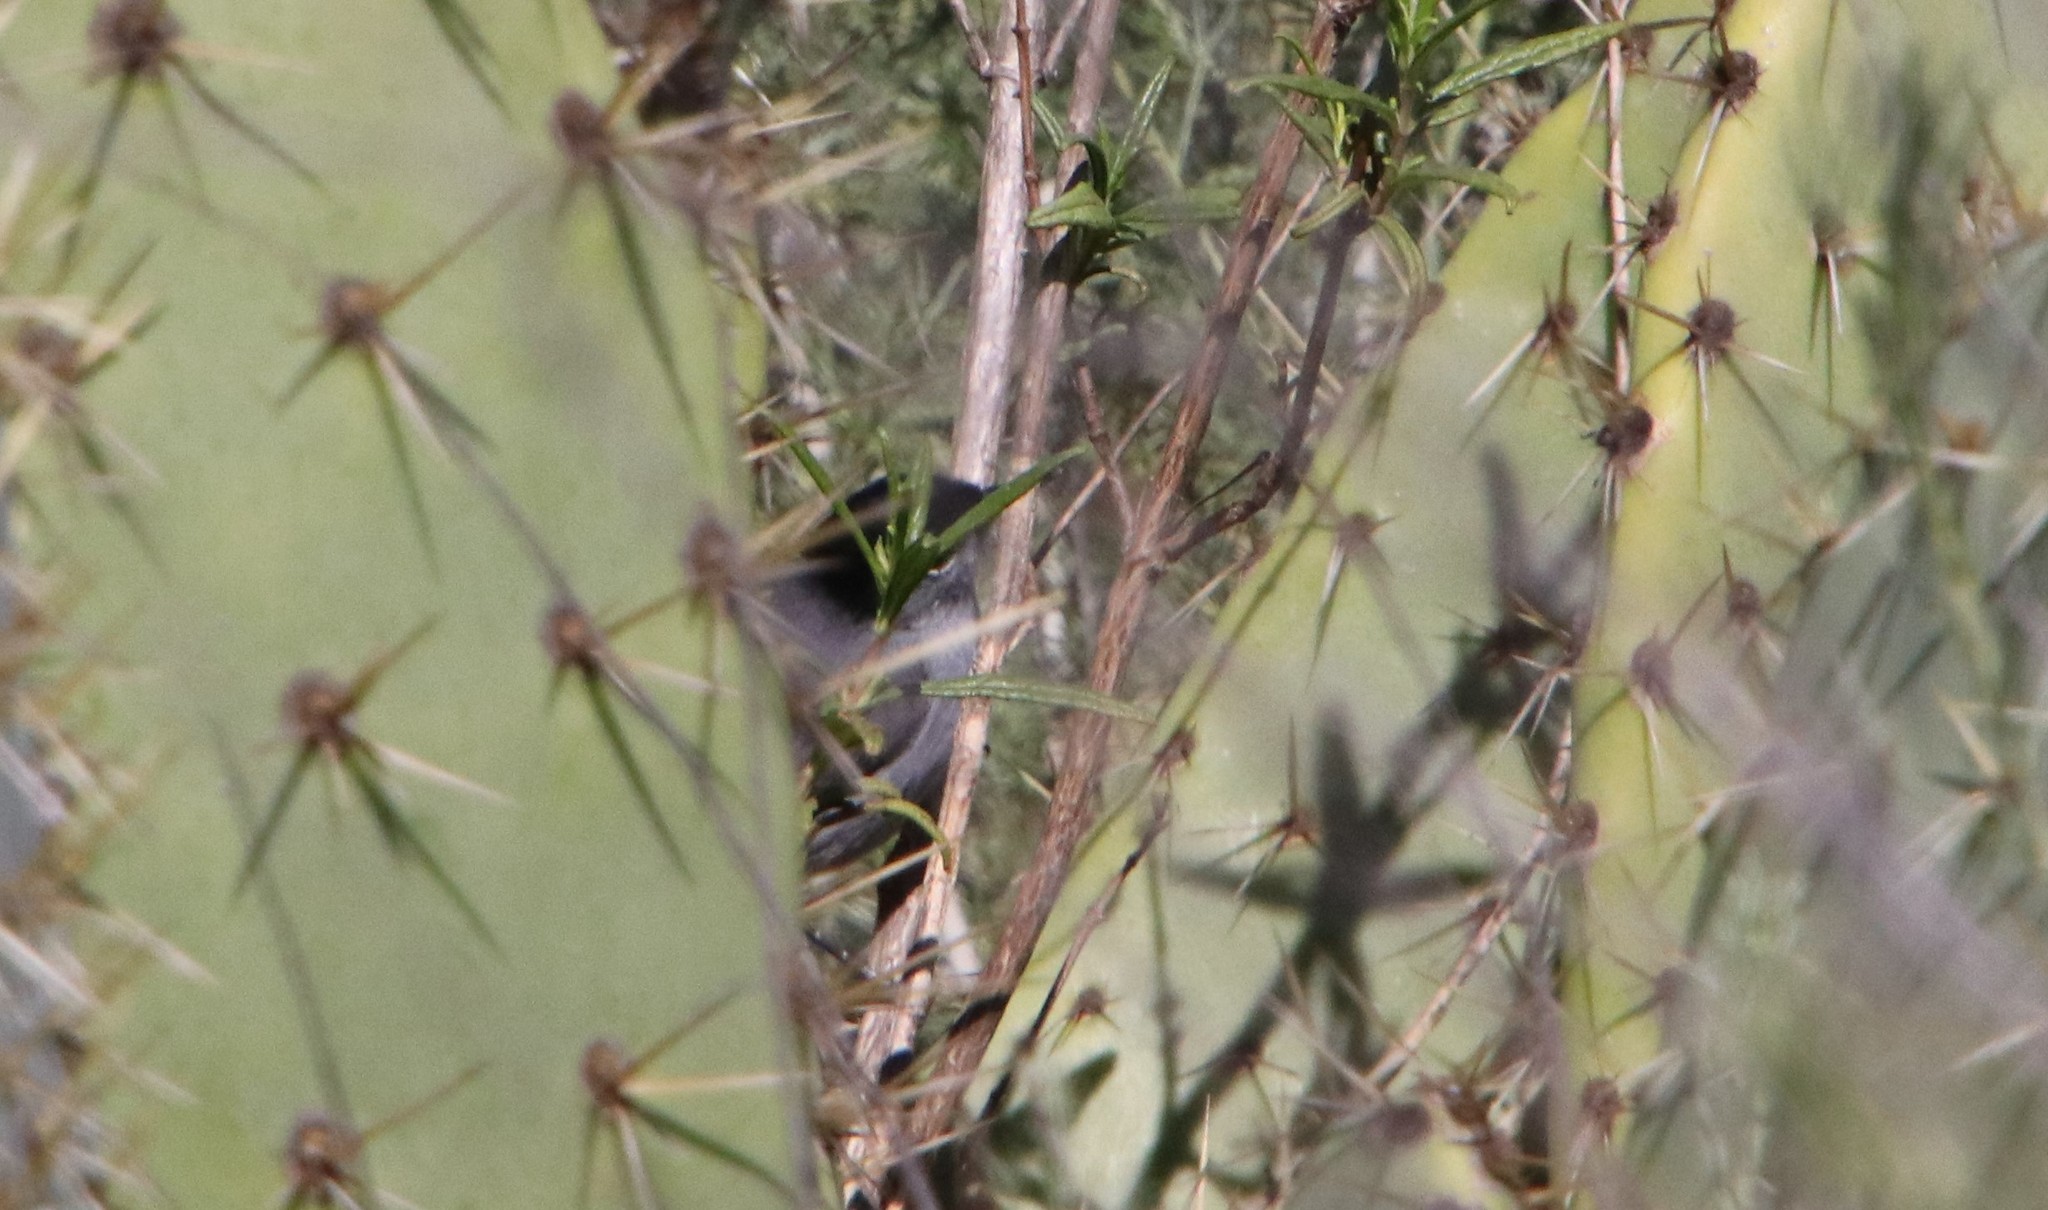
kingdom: Animalia
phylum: Chordata
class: Aves
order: Passeriformes
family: Polioptilidae
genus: Polioptila
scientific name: Polioptila californica
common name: California gnatcatcher
